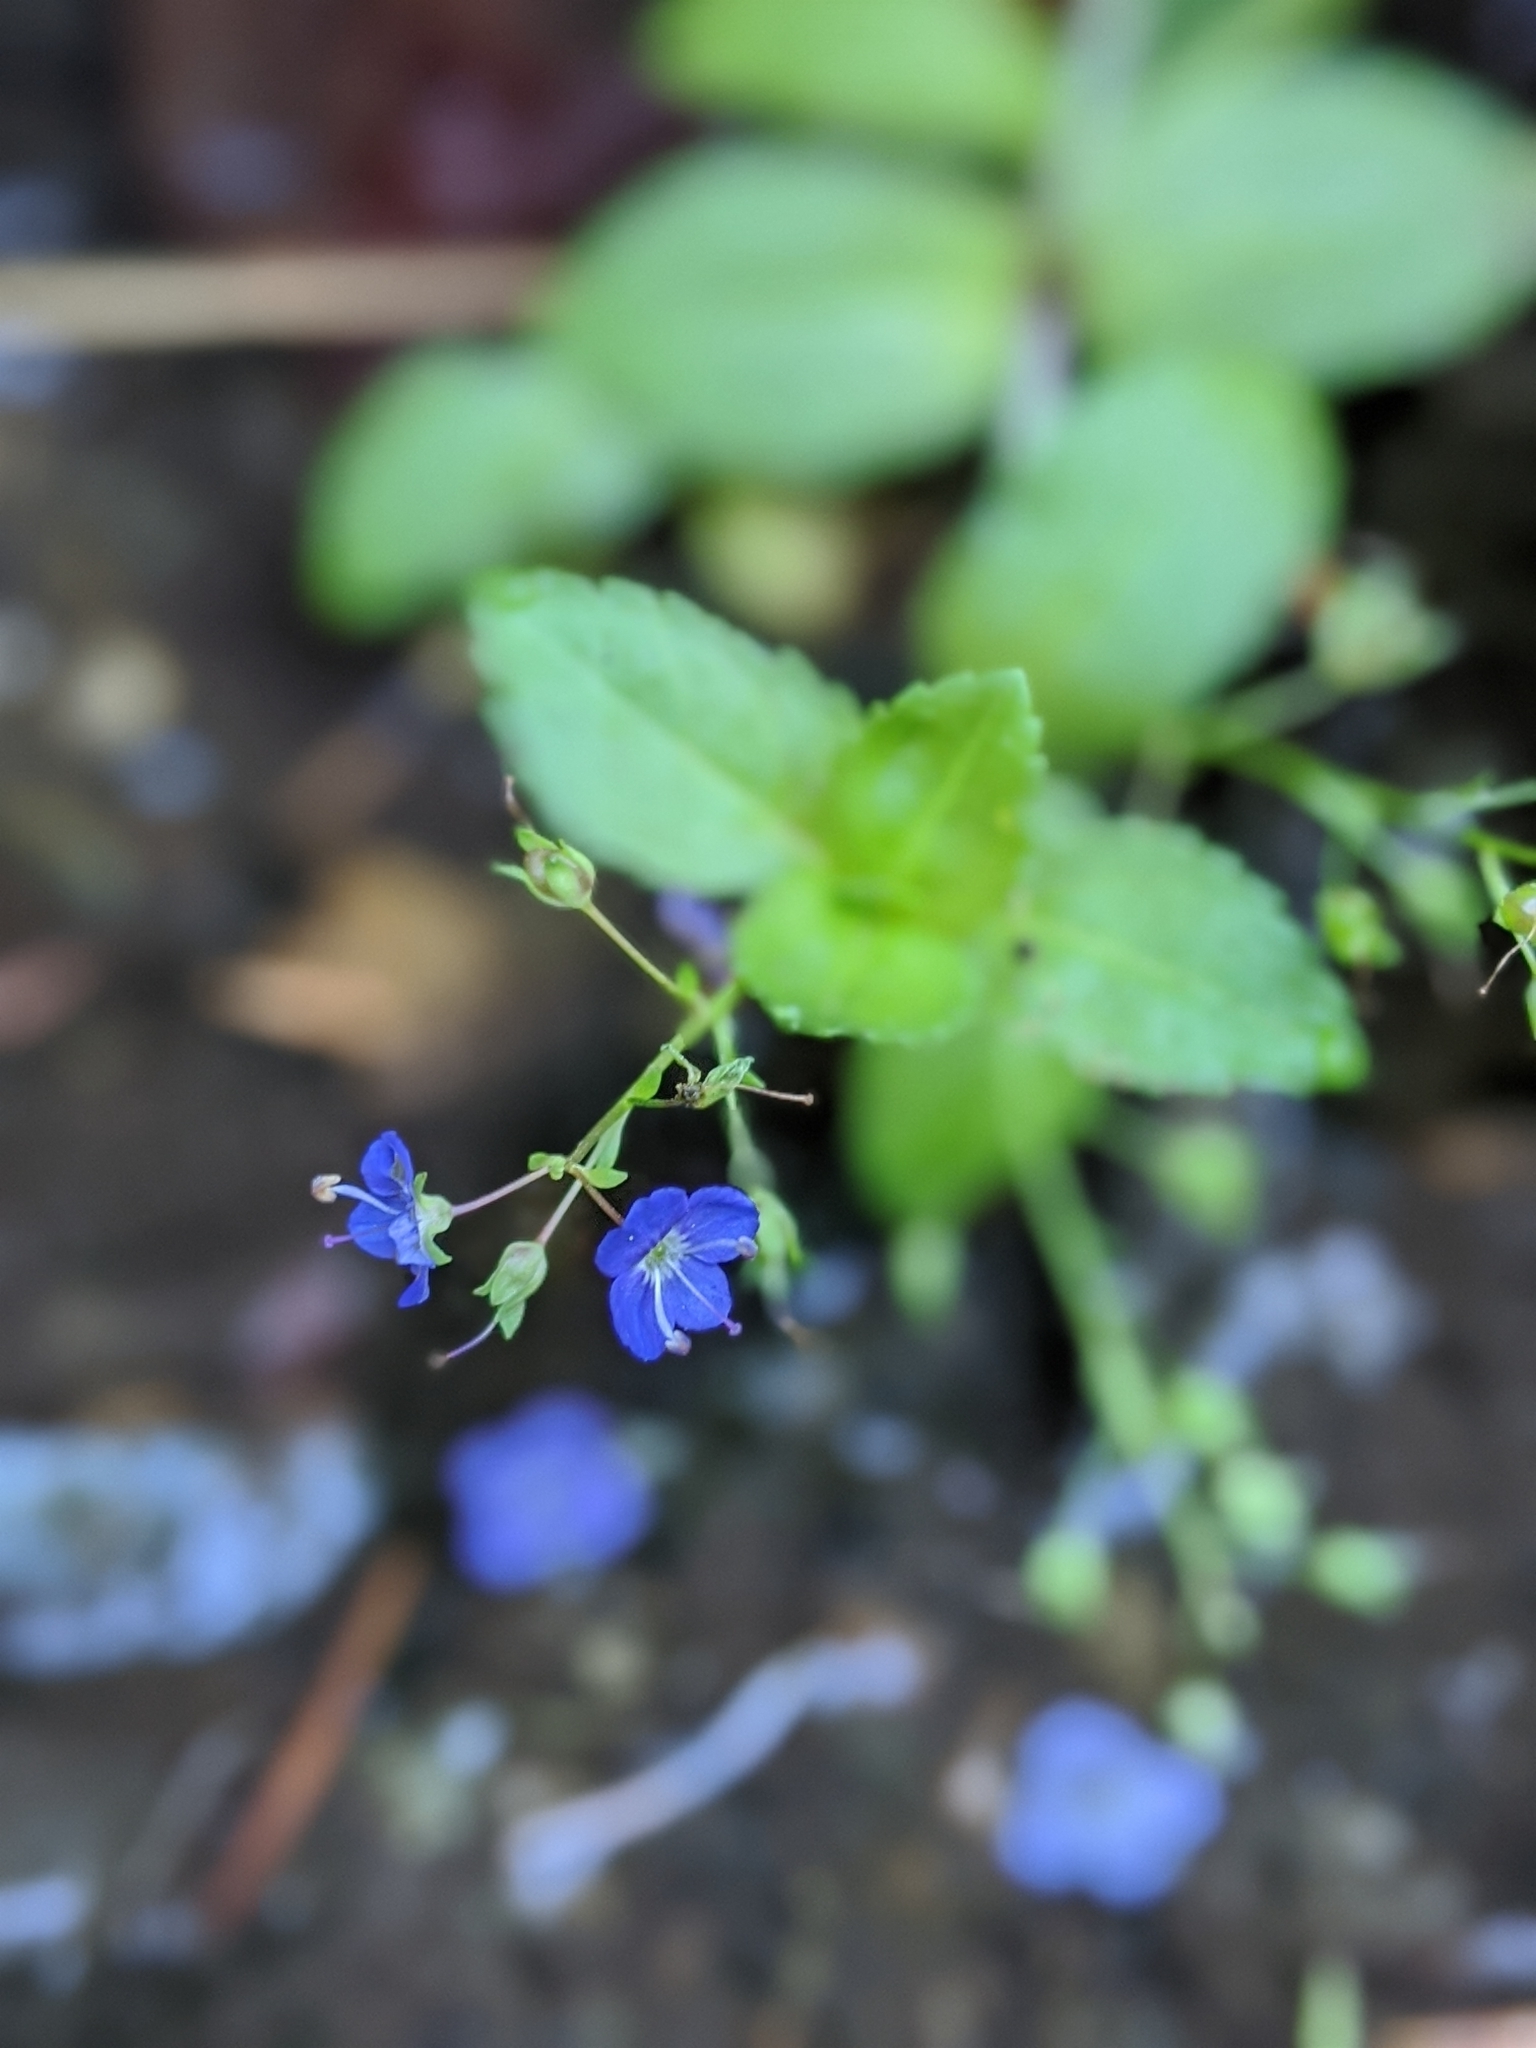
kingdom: Plantae
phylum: Tracheophyta
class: Magnoliopsida
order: Lamiales
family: Plantaginaceae
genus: Veronica
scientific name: Veronica americana
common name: American brooklime
